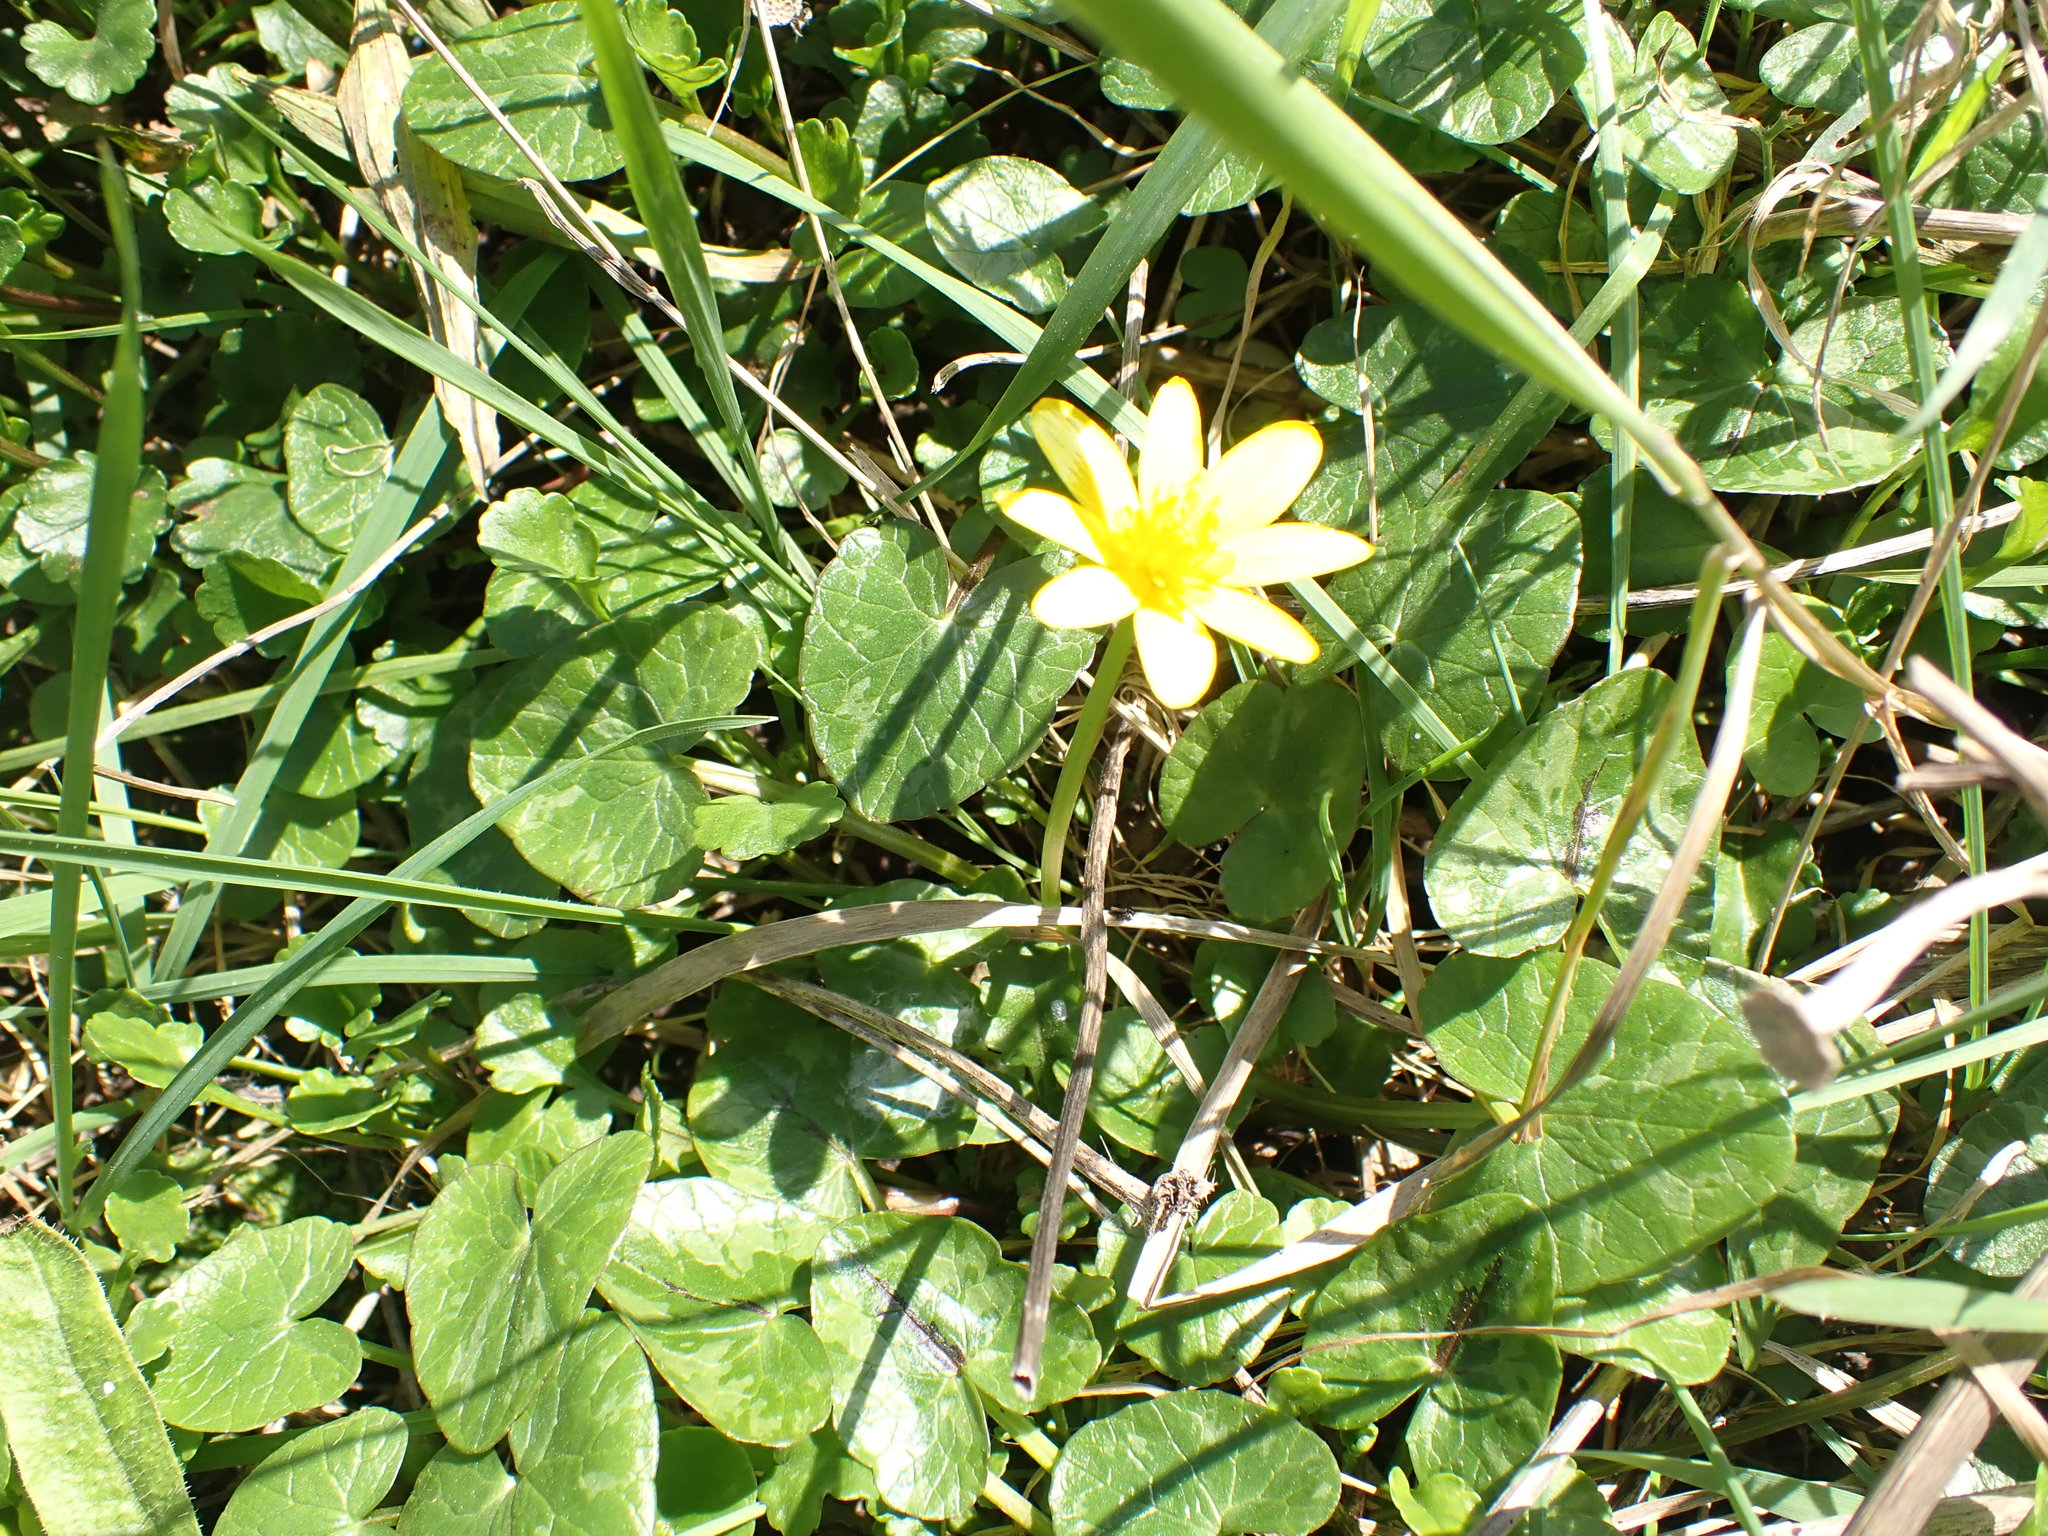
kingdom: Plantae
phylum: Tracheophyta
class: Magnoliopsida
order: Ranunculales
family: Ranunculaceae
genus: Ficaria
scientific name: Ficaria verna
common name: Lesser celandine
